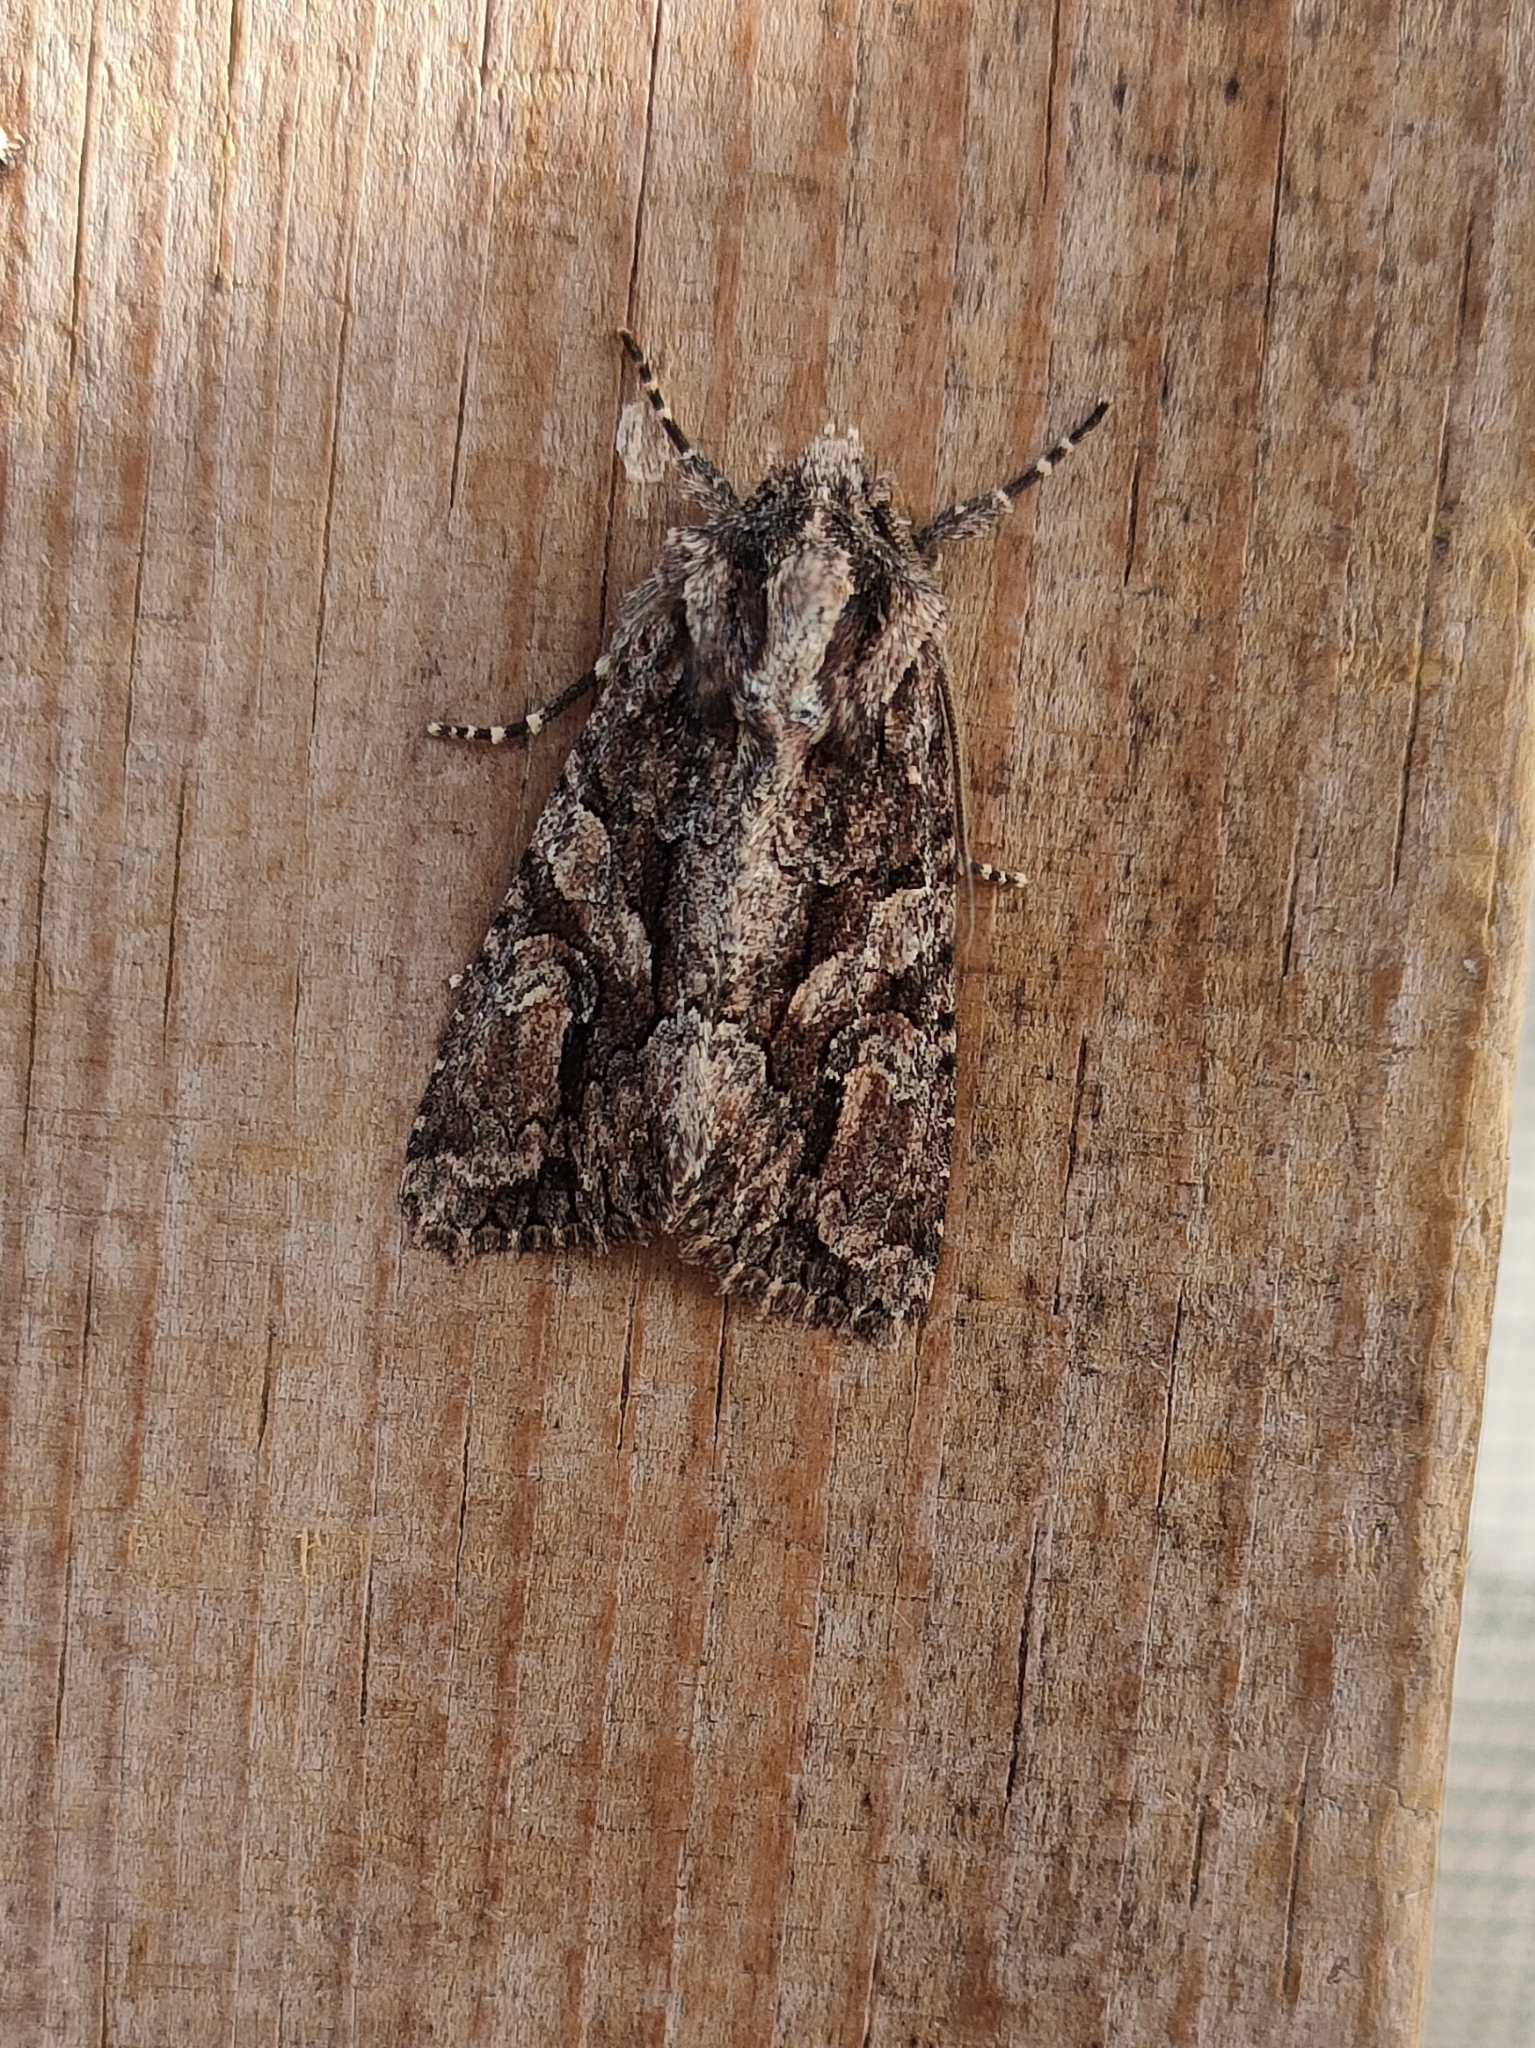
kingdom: Animalia
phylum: Arthropoda
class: Insecta
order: Lepidoptera
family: Noctuidae
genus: Dryobotodes
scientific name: Dryobotodes eremita
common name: Brindled green
